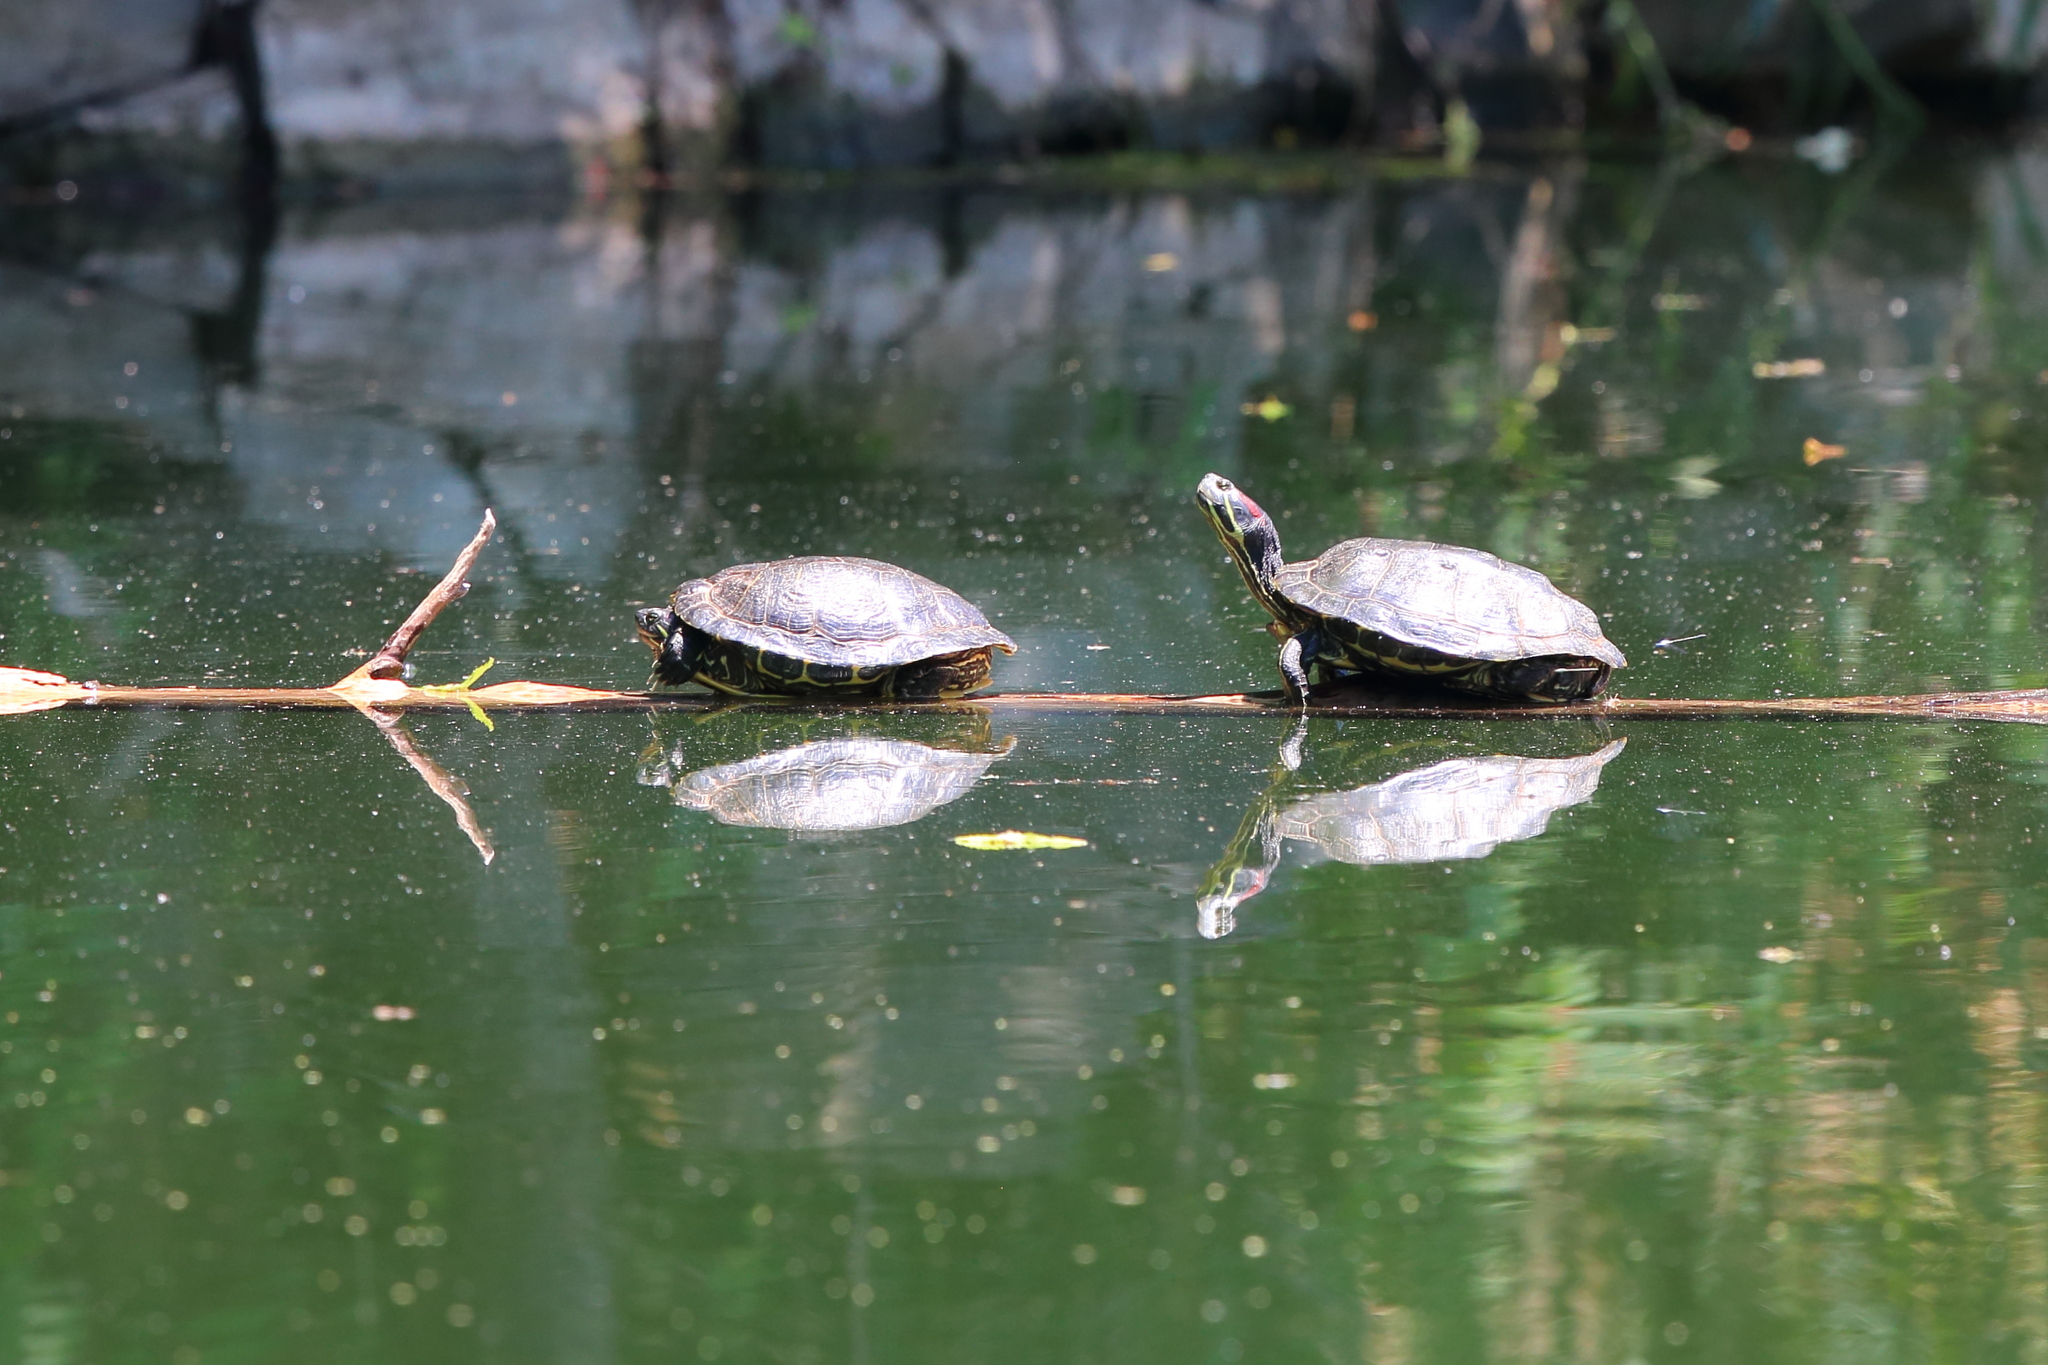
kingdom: Animalia
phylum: Chordata
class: Testudines
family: Emydidae
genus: Trachemys
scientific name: Trachemys scripta
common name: Slider
